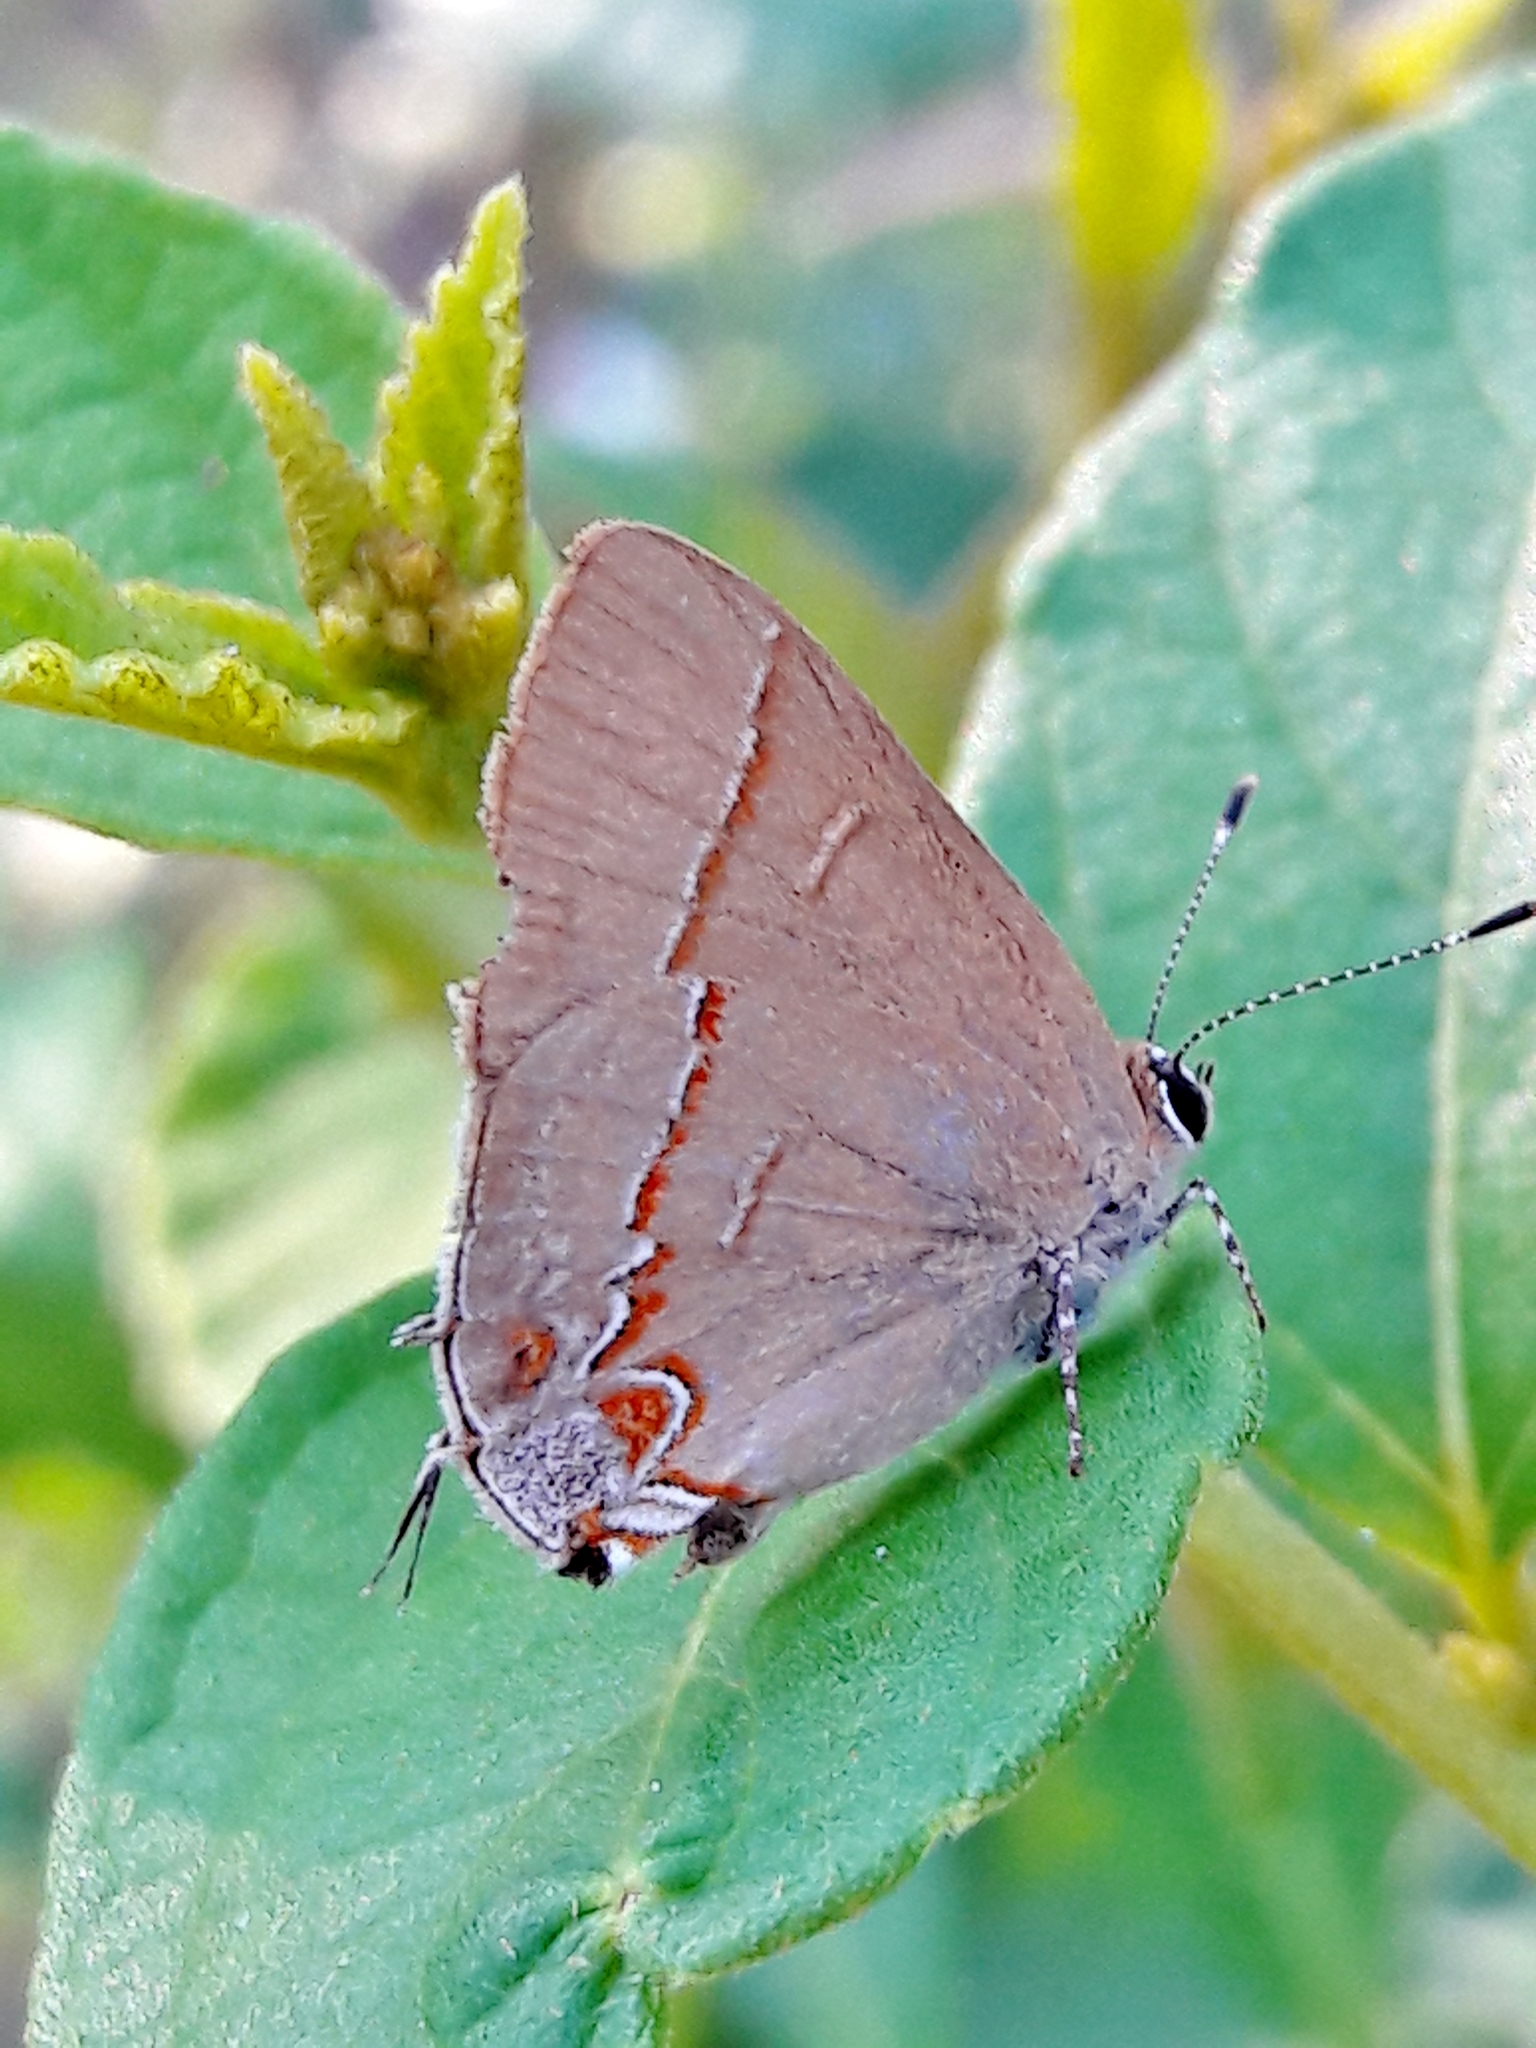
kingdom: Animalia
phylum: Arthropoda
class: Insecta
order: Lepidoptera
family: Lycaenidae
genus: Calycopis
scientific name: Calycopis thama
